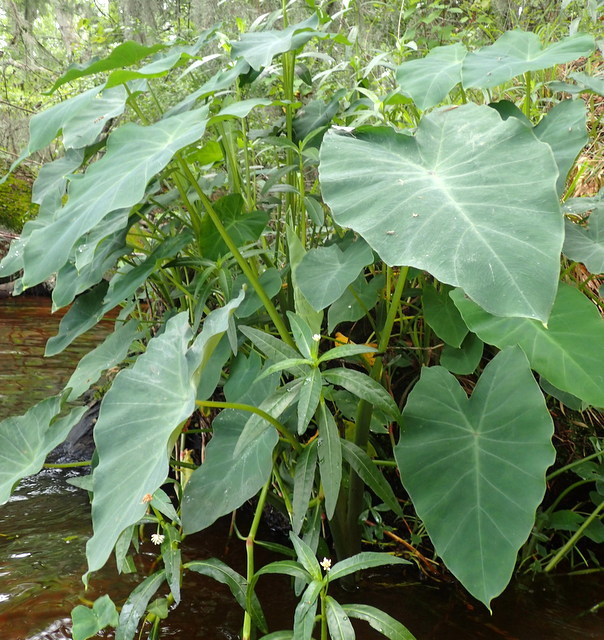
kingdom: Plantae
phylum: Tracheophyta
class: Liliopsida
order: Alismatales
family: Araceae
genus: Colocasia
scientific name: Colocasia esculenta
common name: Taro
